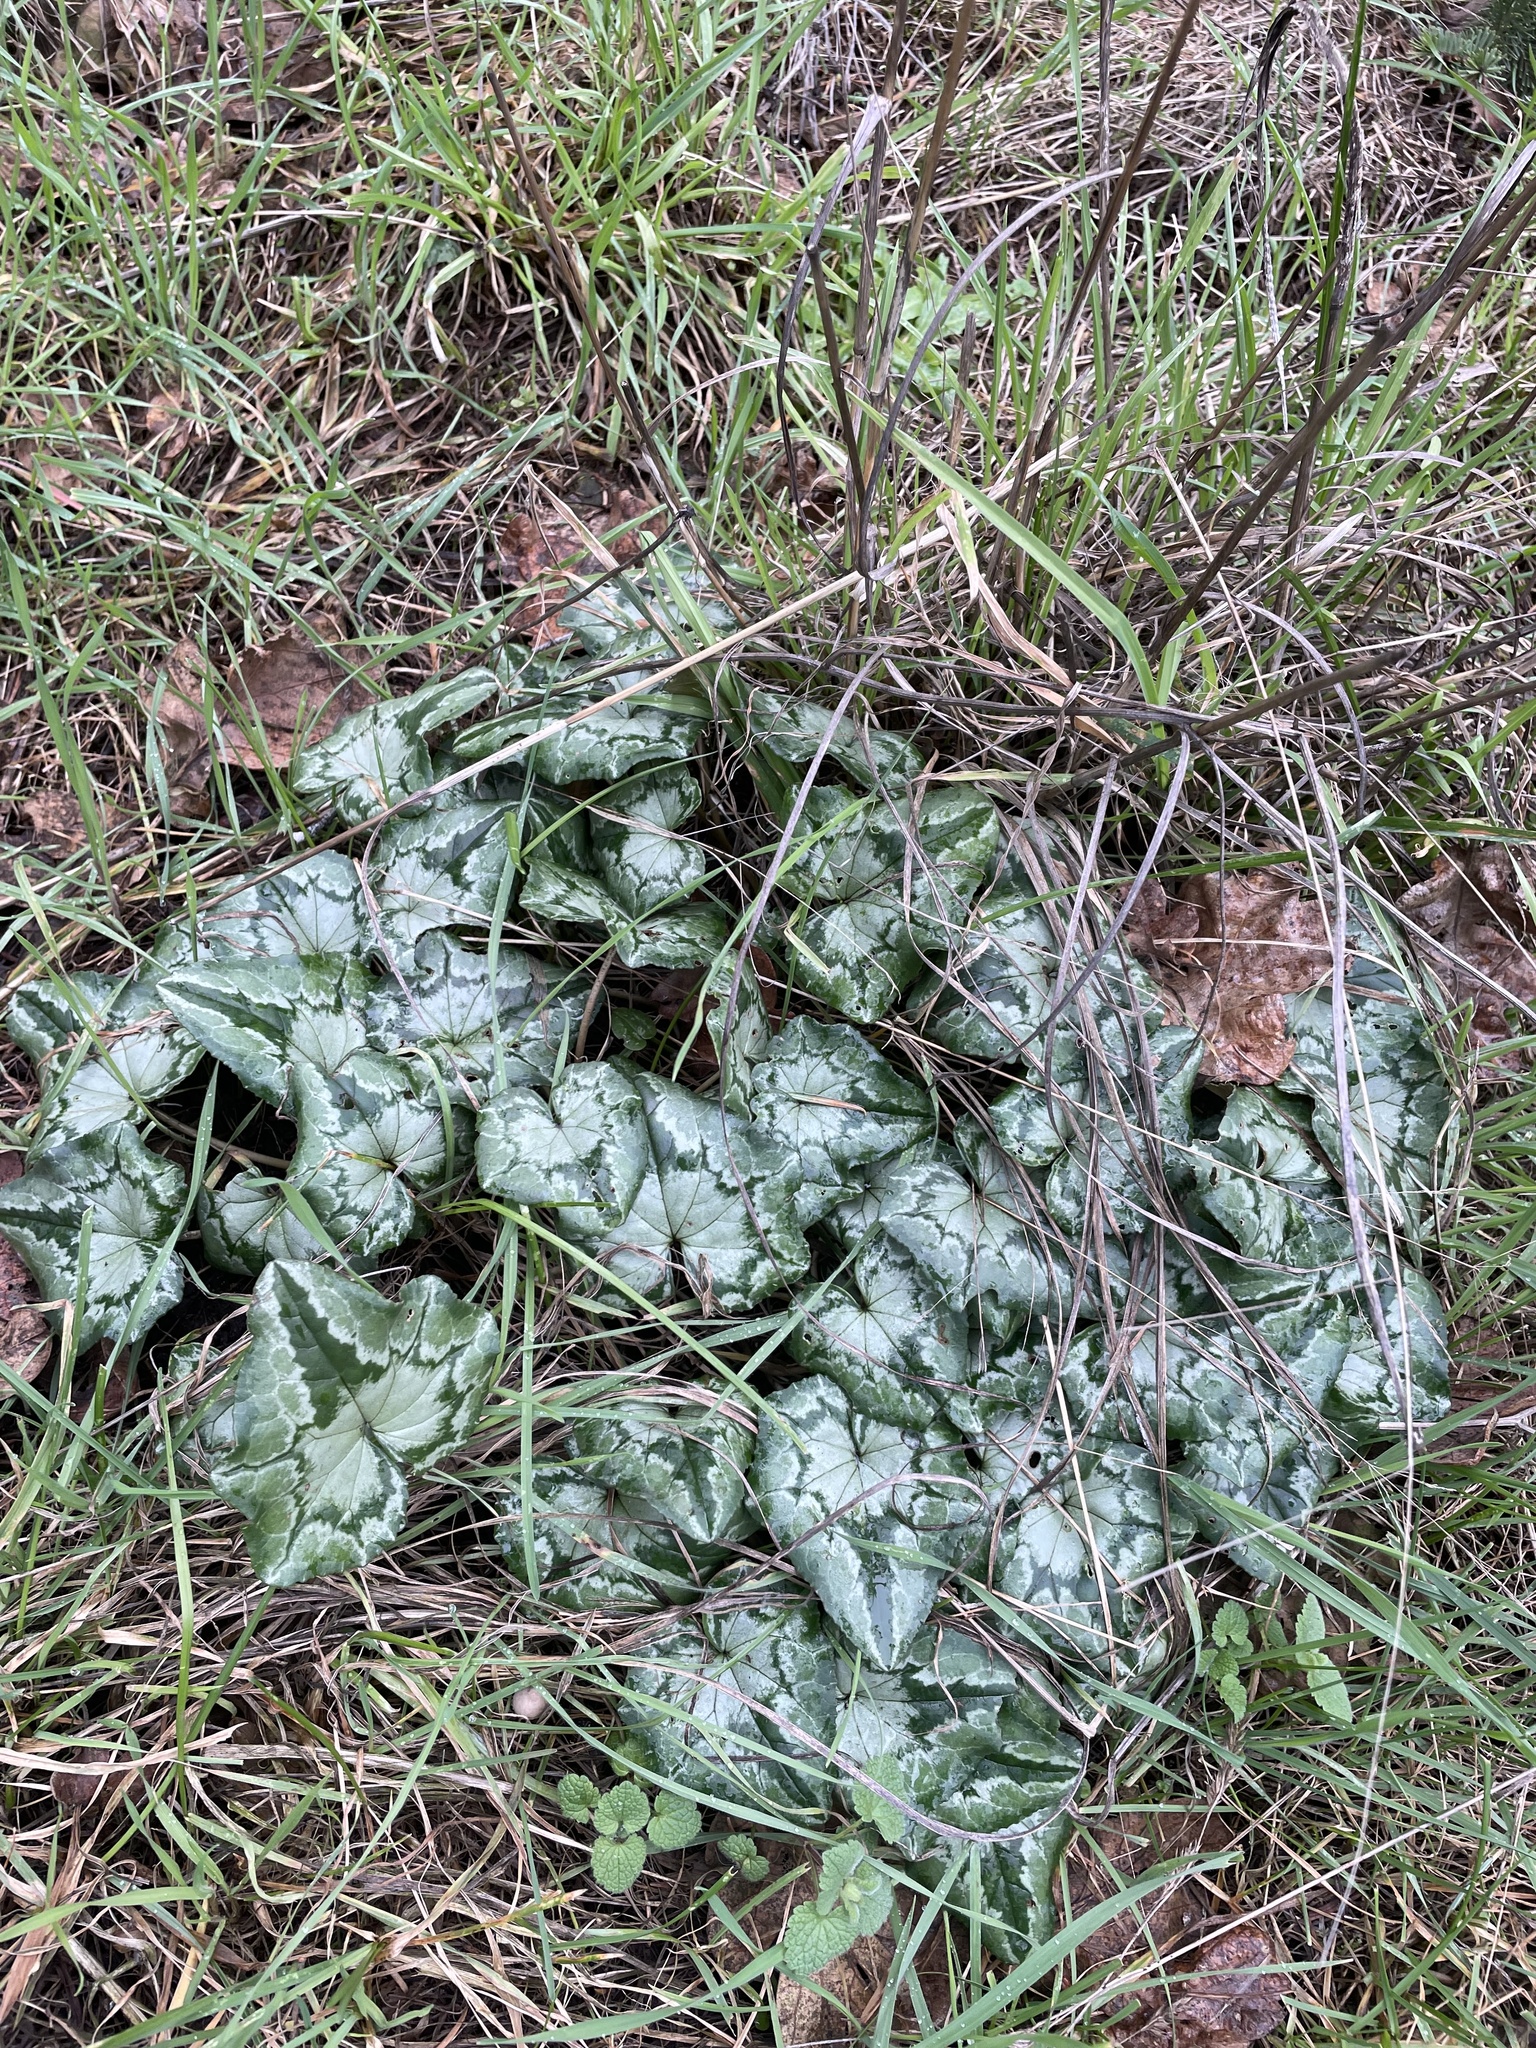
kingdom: Plantae
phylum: Tracheophyta
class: Magnoliopsida
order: Ericales
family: Primulaceae
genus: Cyclamen
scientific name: Cyclamen hederifolium
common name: Sowbread
